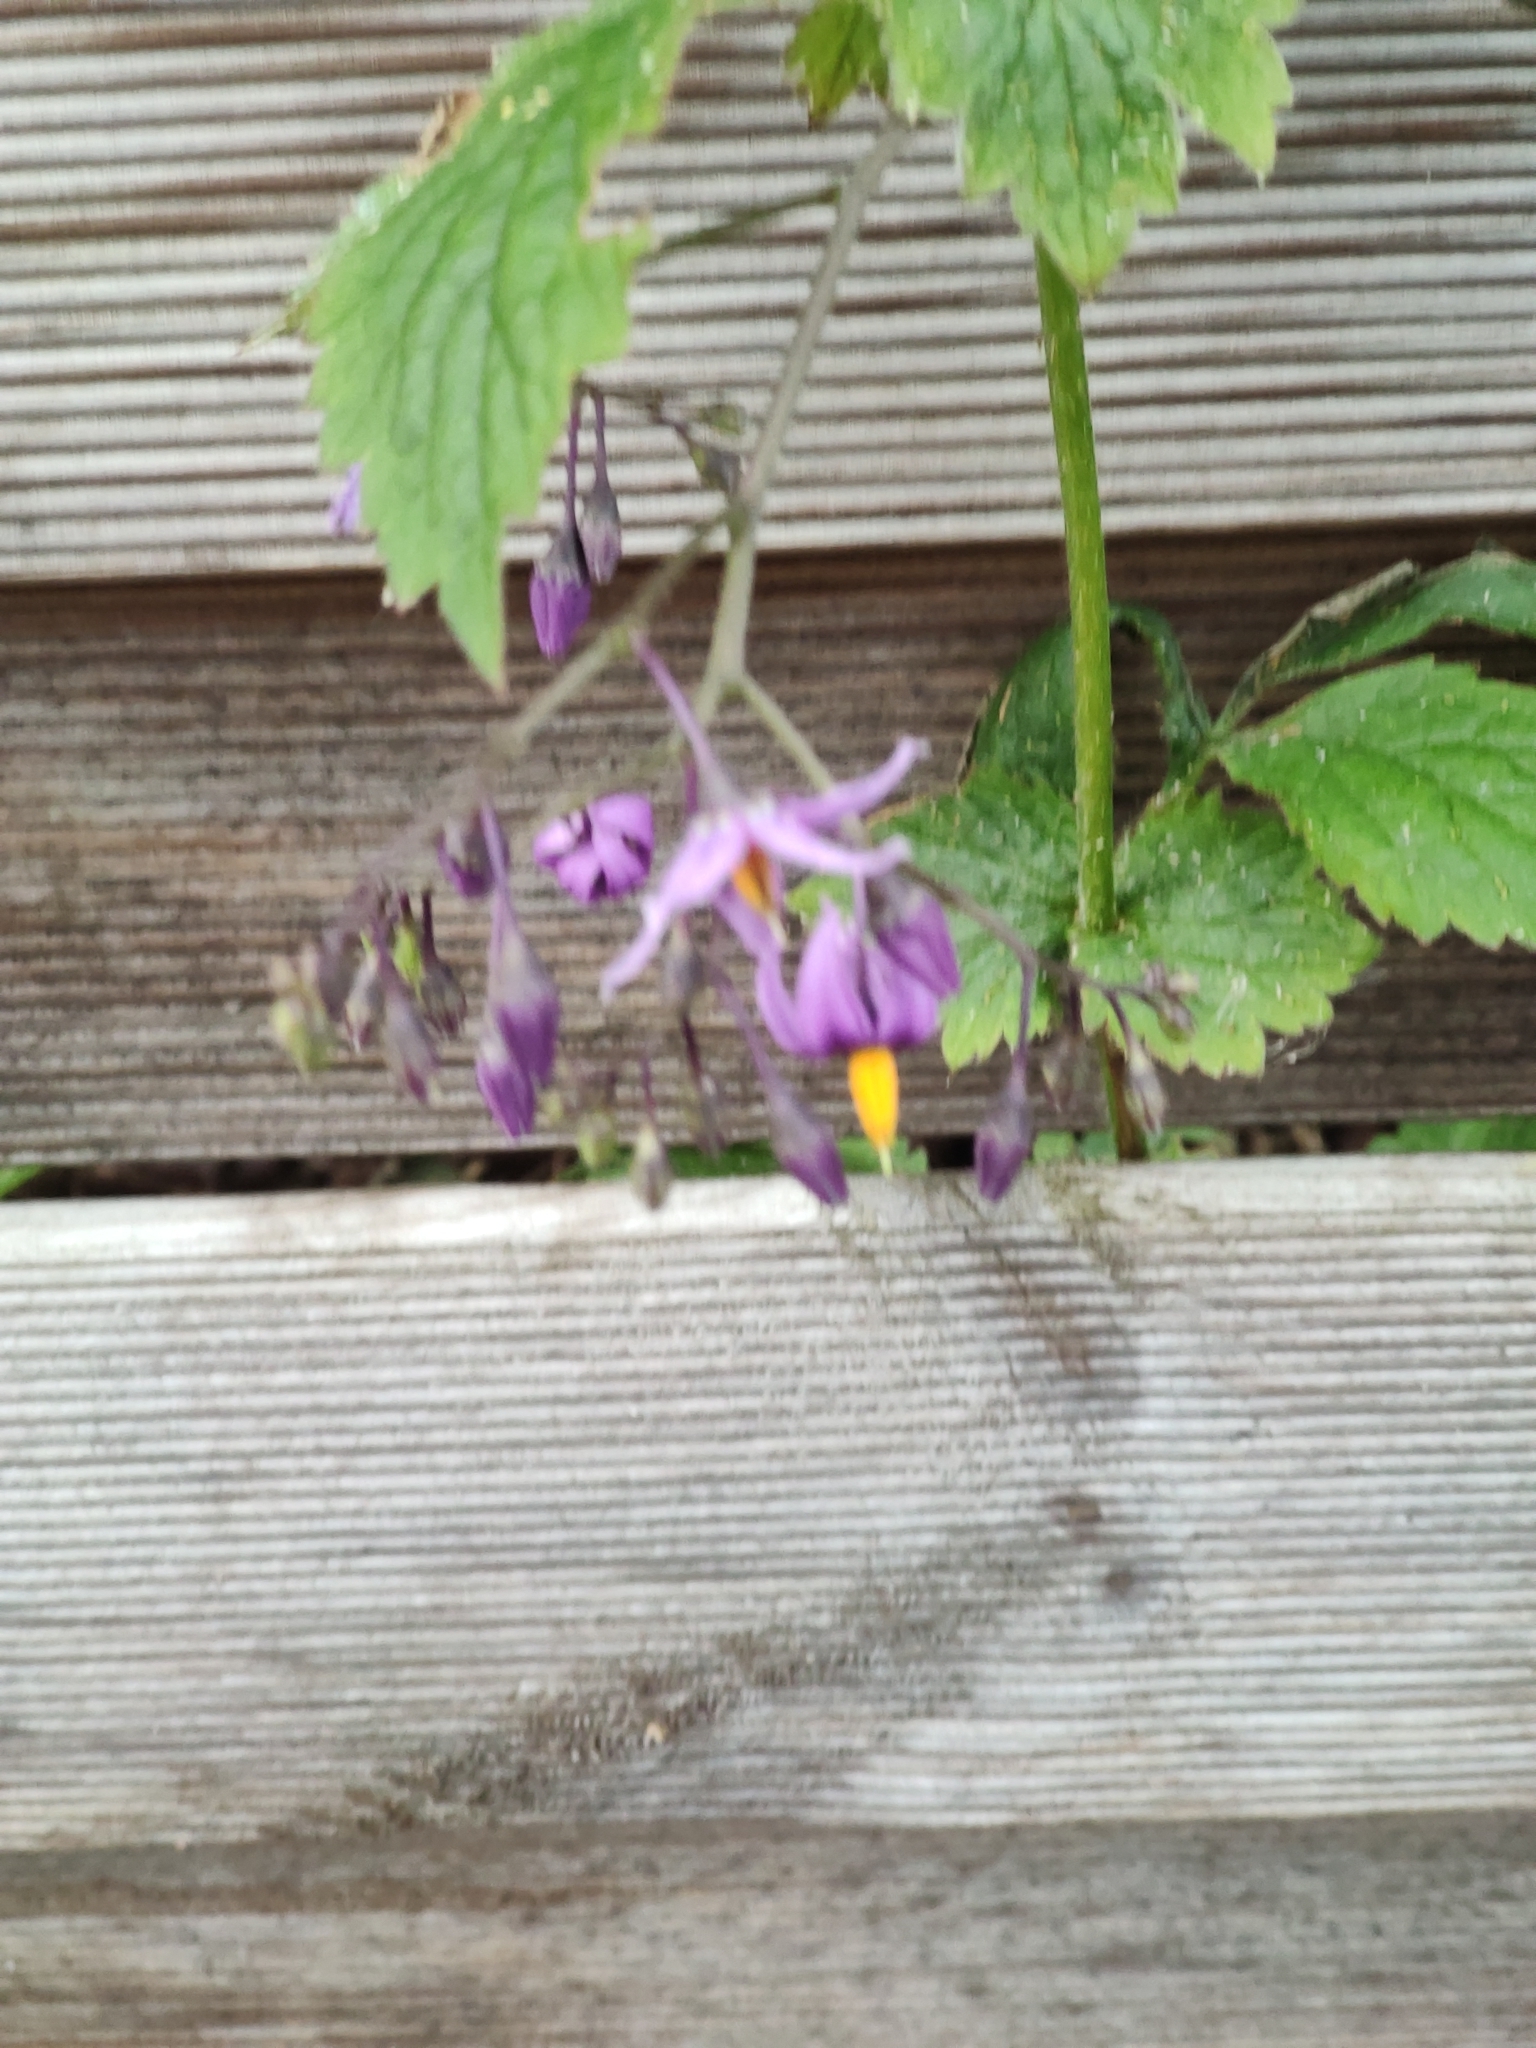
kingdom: Plantae
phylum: Tracheophyta
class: Magnoliopsida
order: Solanales
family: Solanaceae
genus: Solanum
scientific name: Solanum dulcamara
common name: Climbing nightshade
